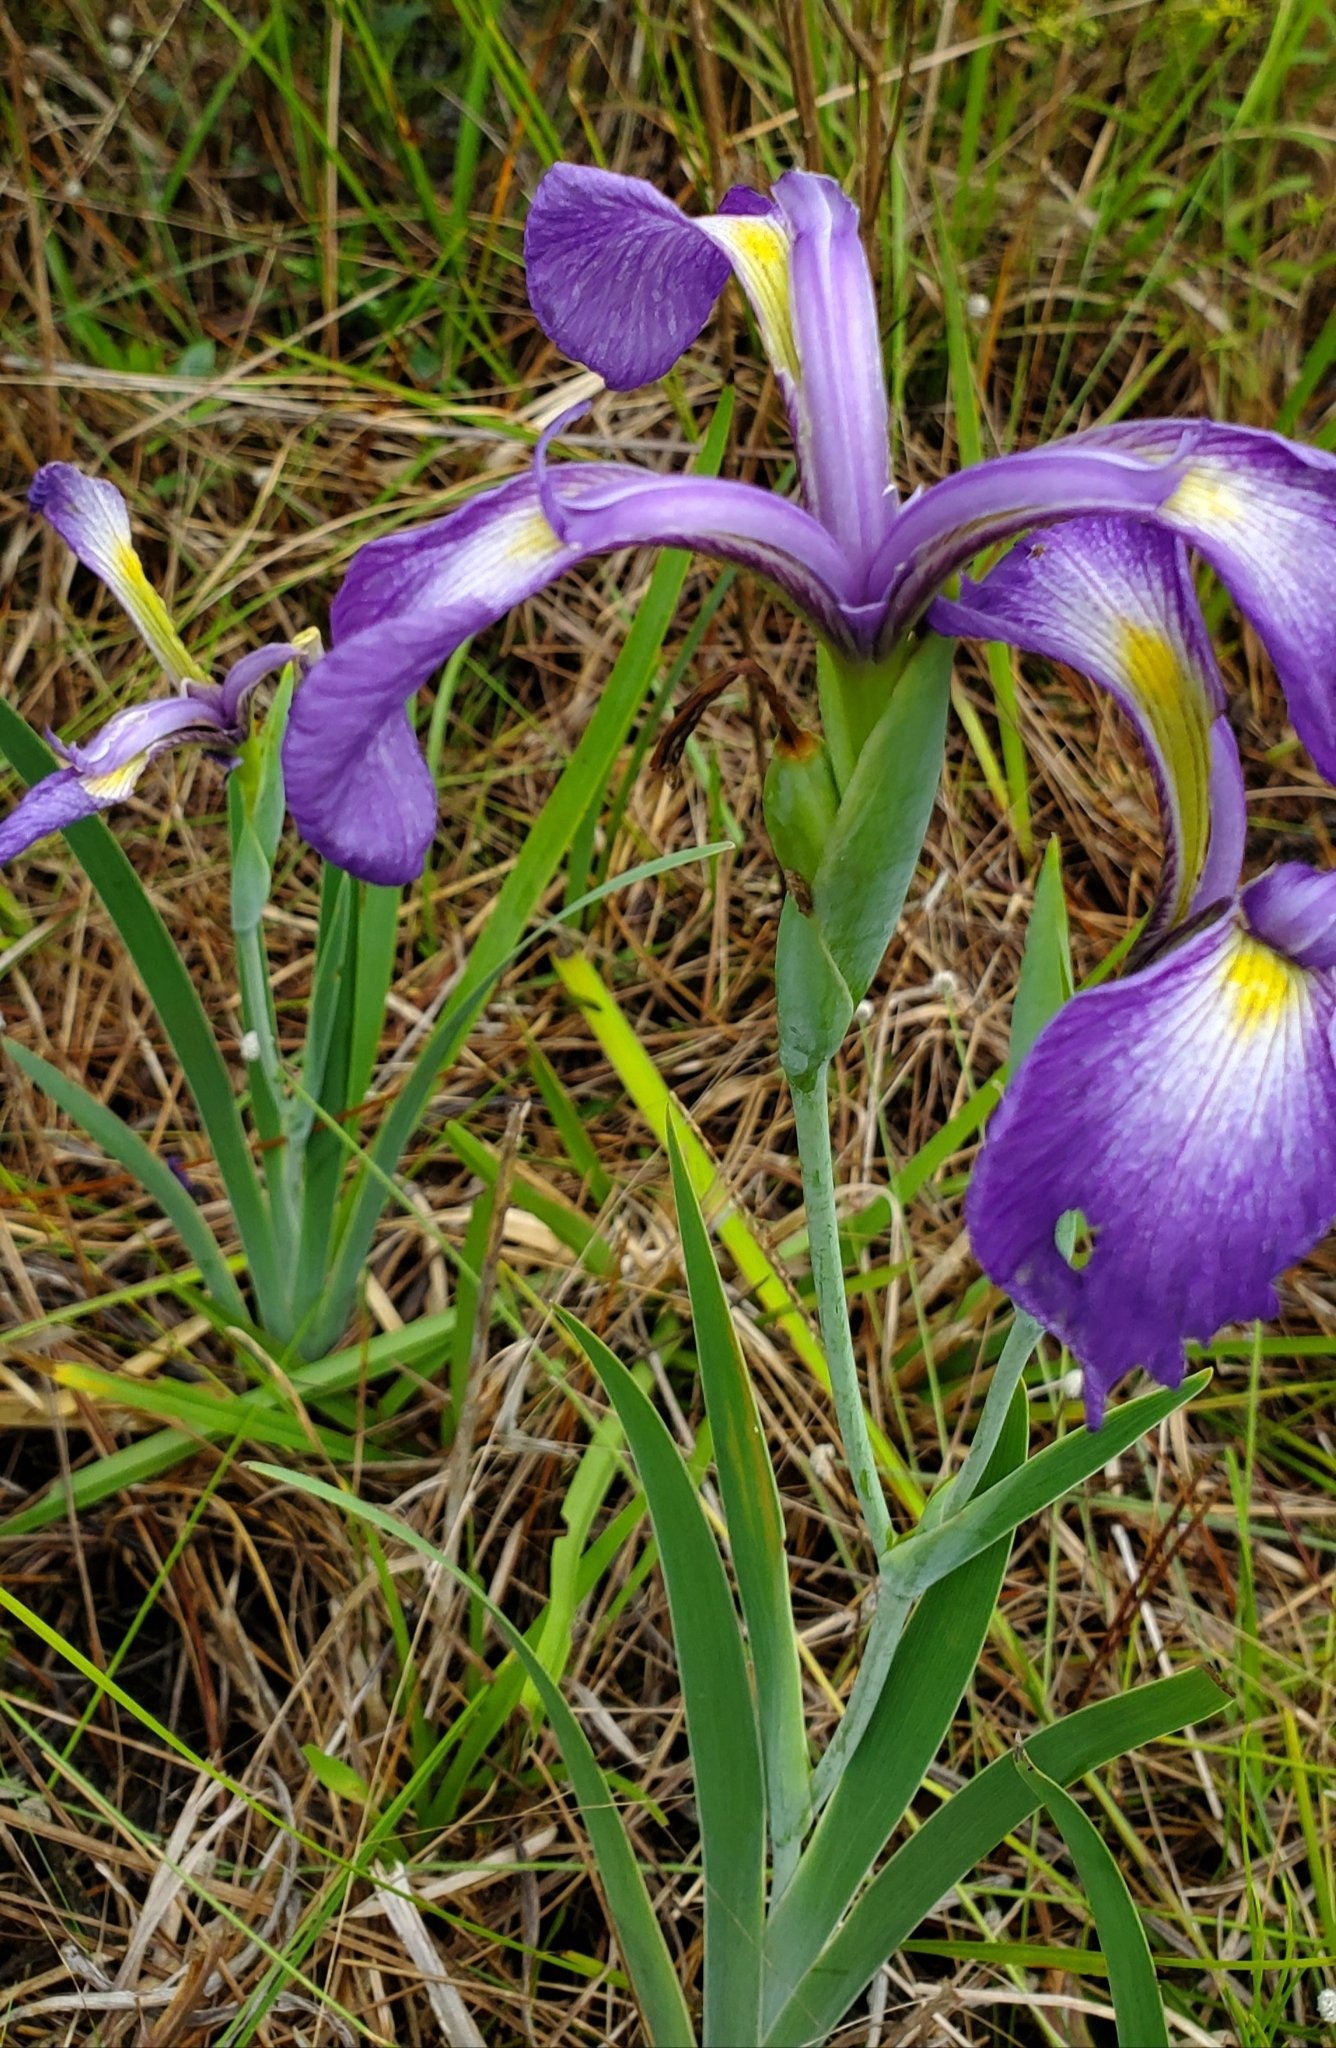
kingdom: Plantae
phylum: Tracheophyta
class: Liliopsida
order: Asparagales
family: Iridaceae
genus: Iris
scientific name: Iris tridentata
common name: Savannah iris
